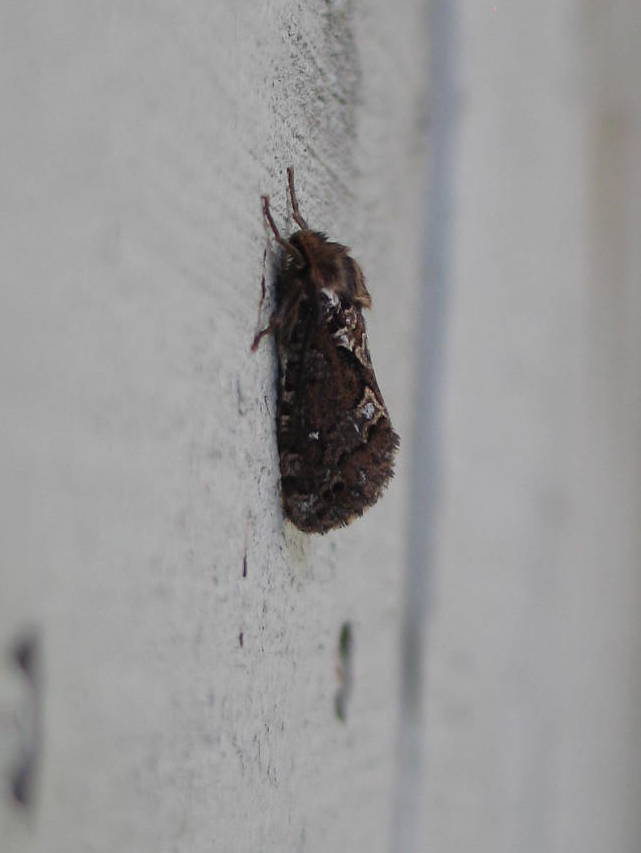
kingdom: Animalia
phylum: Arthropoda
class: Insecta
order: Lepidoptera
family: Hepialidae
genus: Korscheltellus
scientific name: Korscheltellus gracilis
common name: Conifer swift moth
